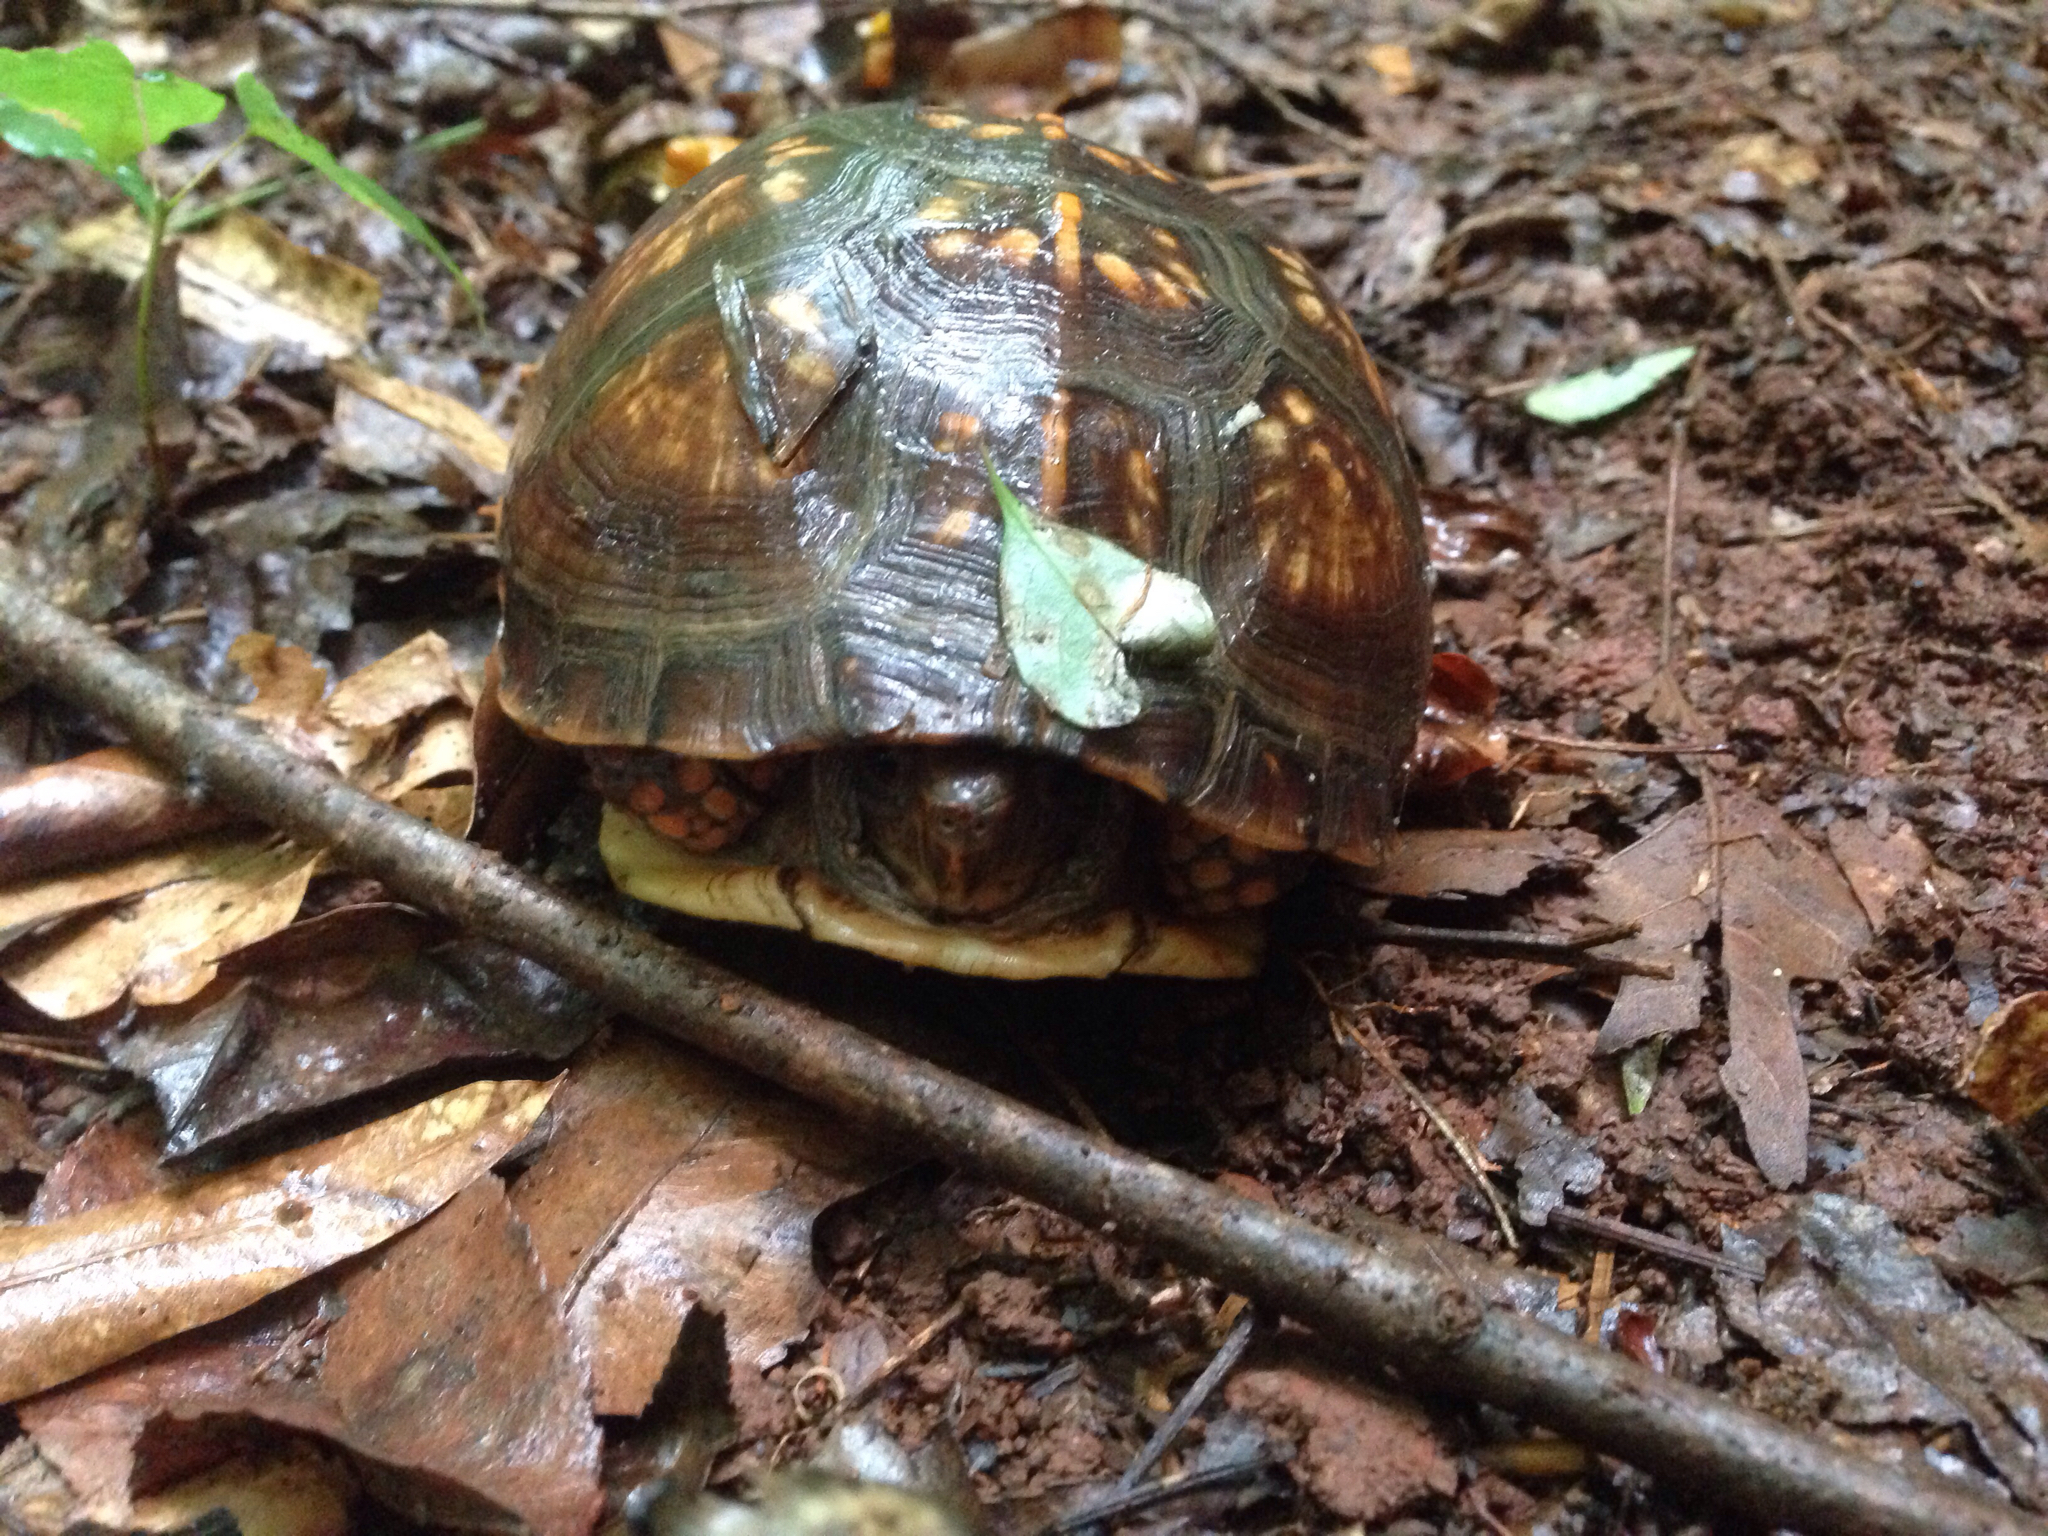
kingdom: Animalia
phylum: Chordata
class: Testudines
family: Emydidae
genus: Terrapene
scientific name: Terrapene carolina
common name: Common box turtle
